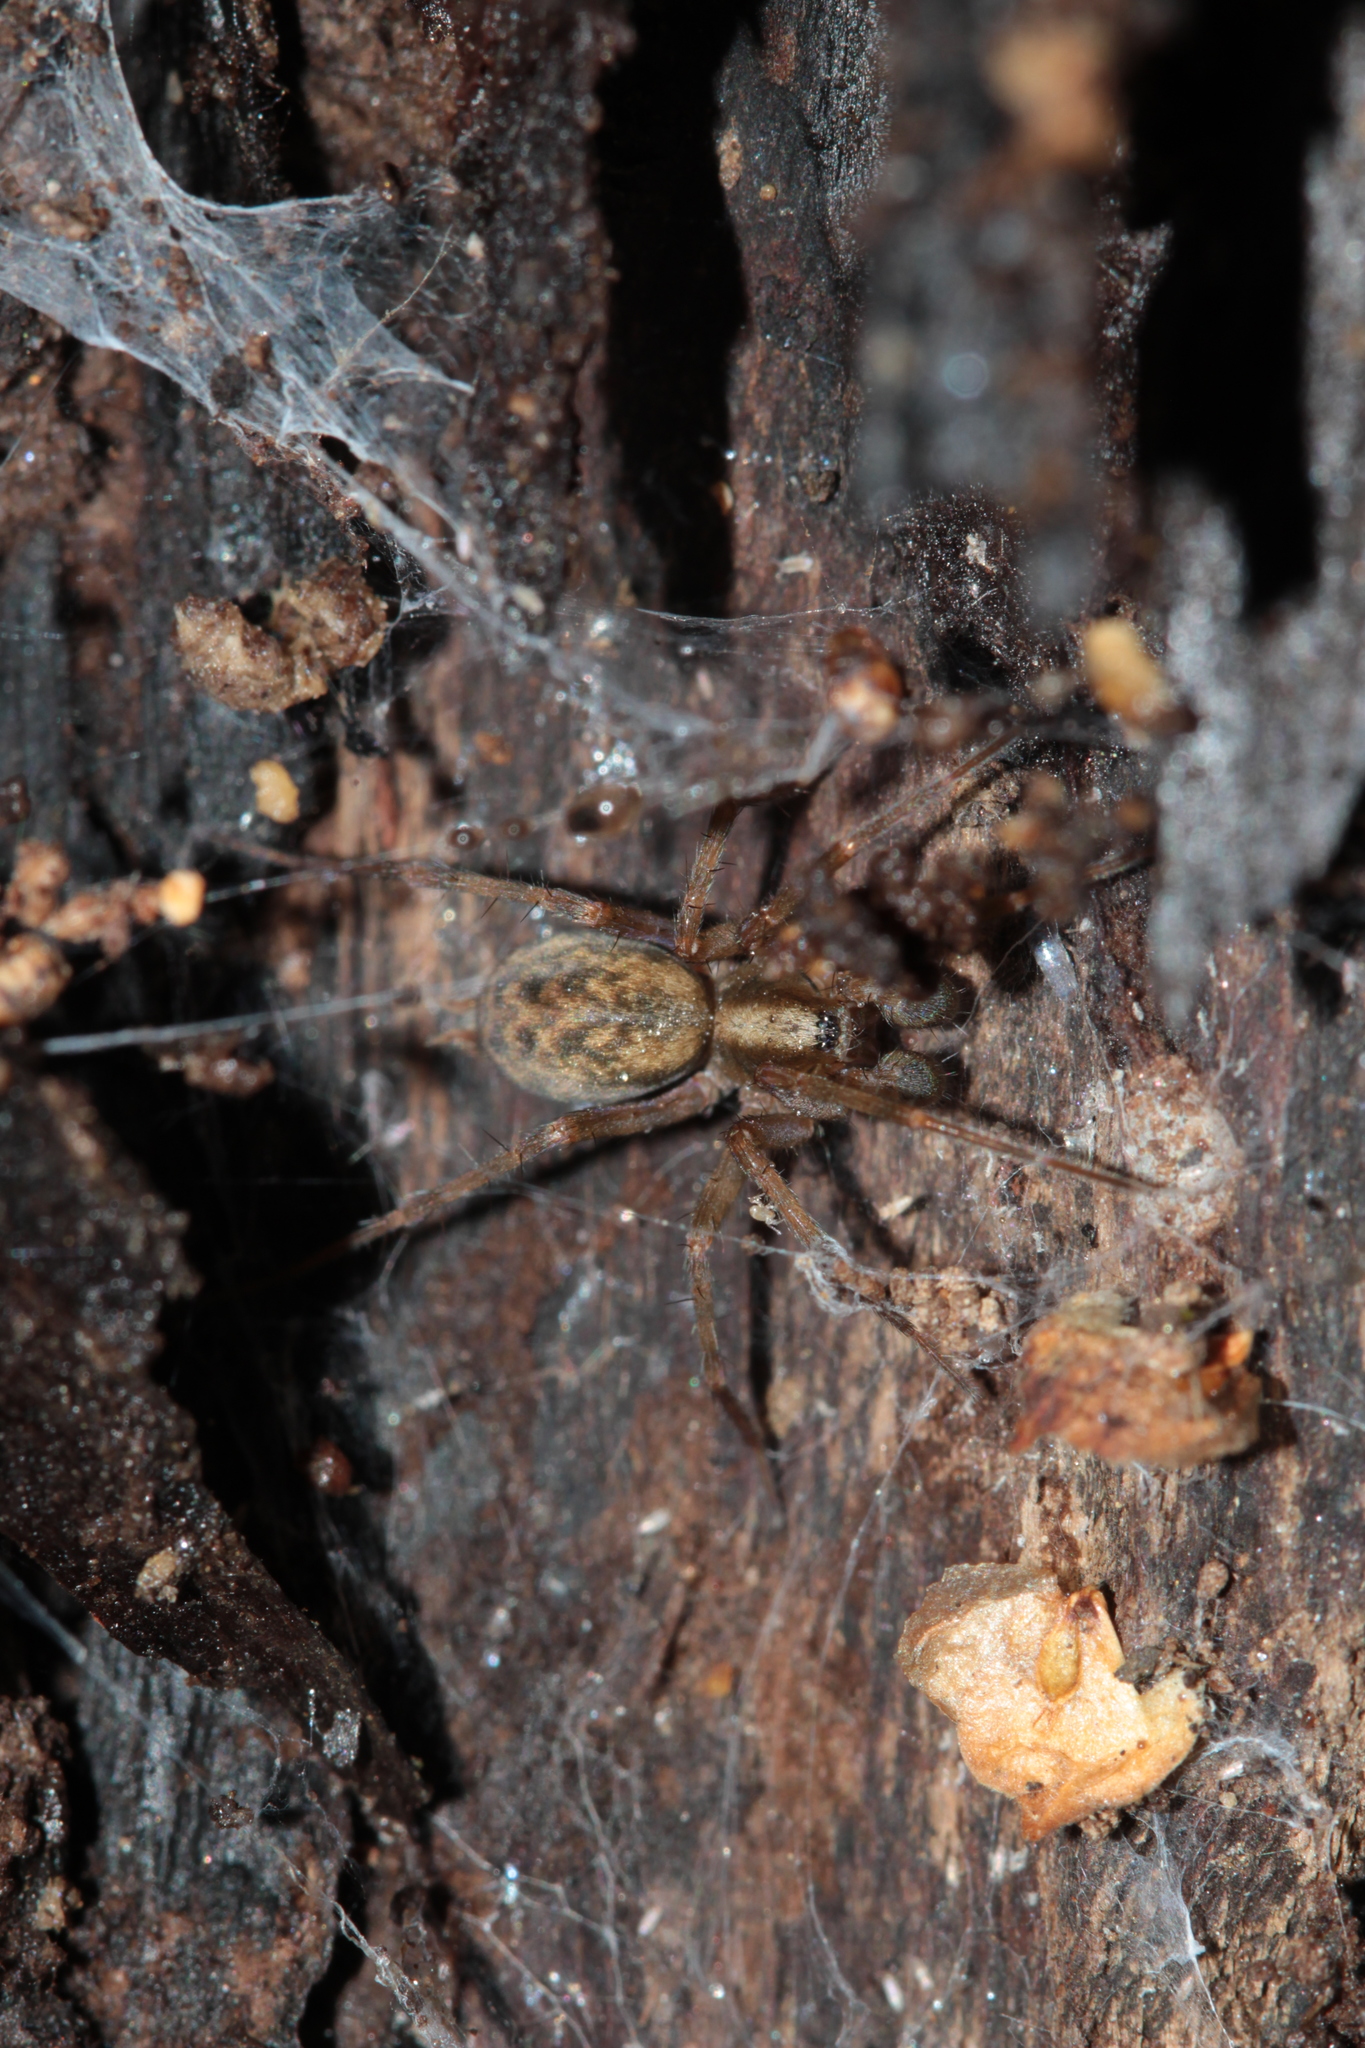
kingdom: Animalia
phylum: Arthropoda
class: Arachnida
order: Araneae
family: Agelenidae
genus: Histopona
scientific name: Histopona torpida
